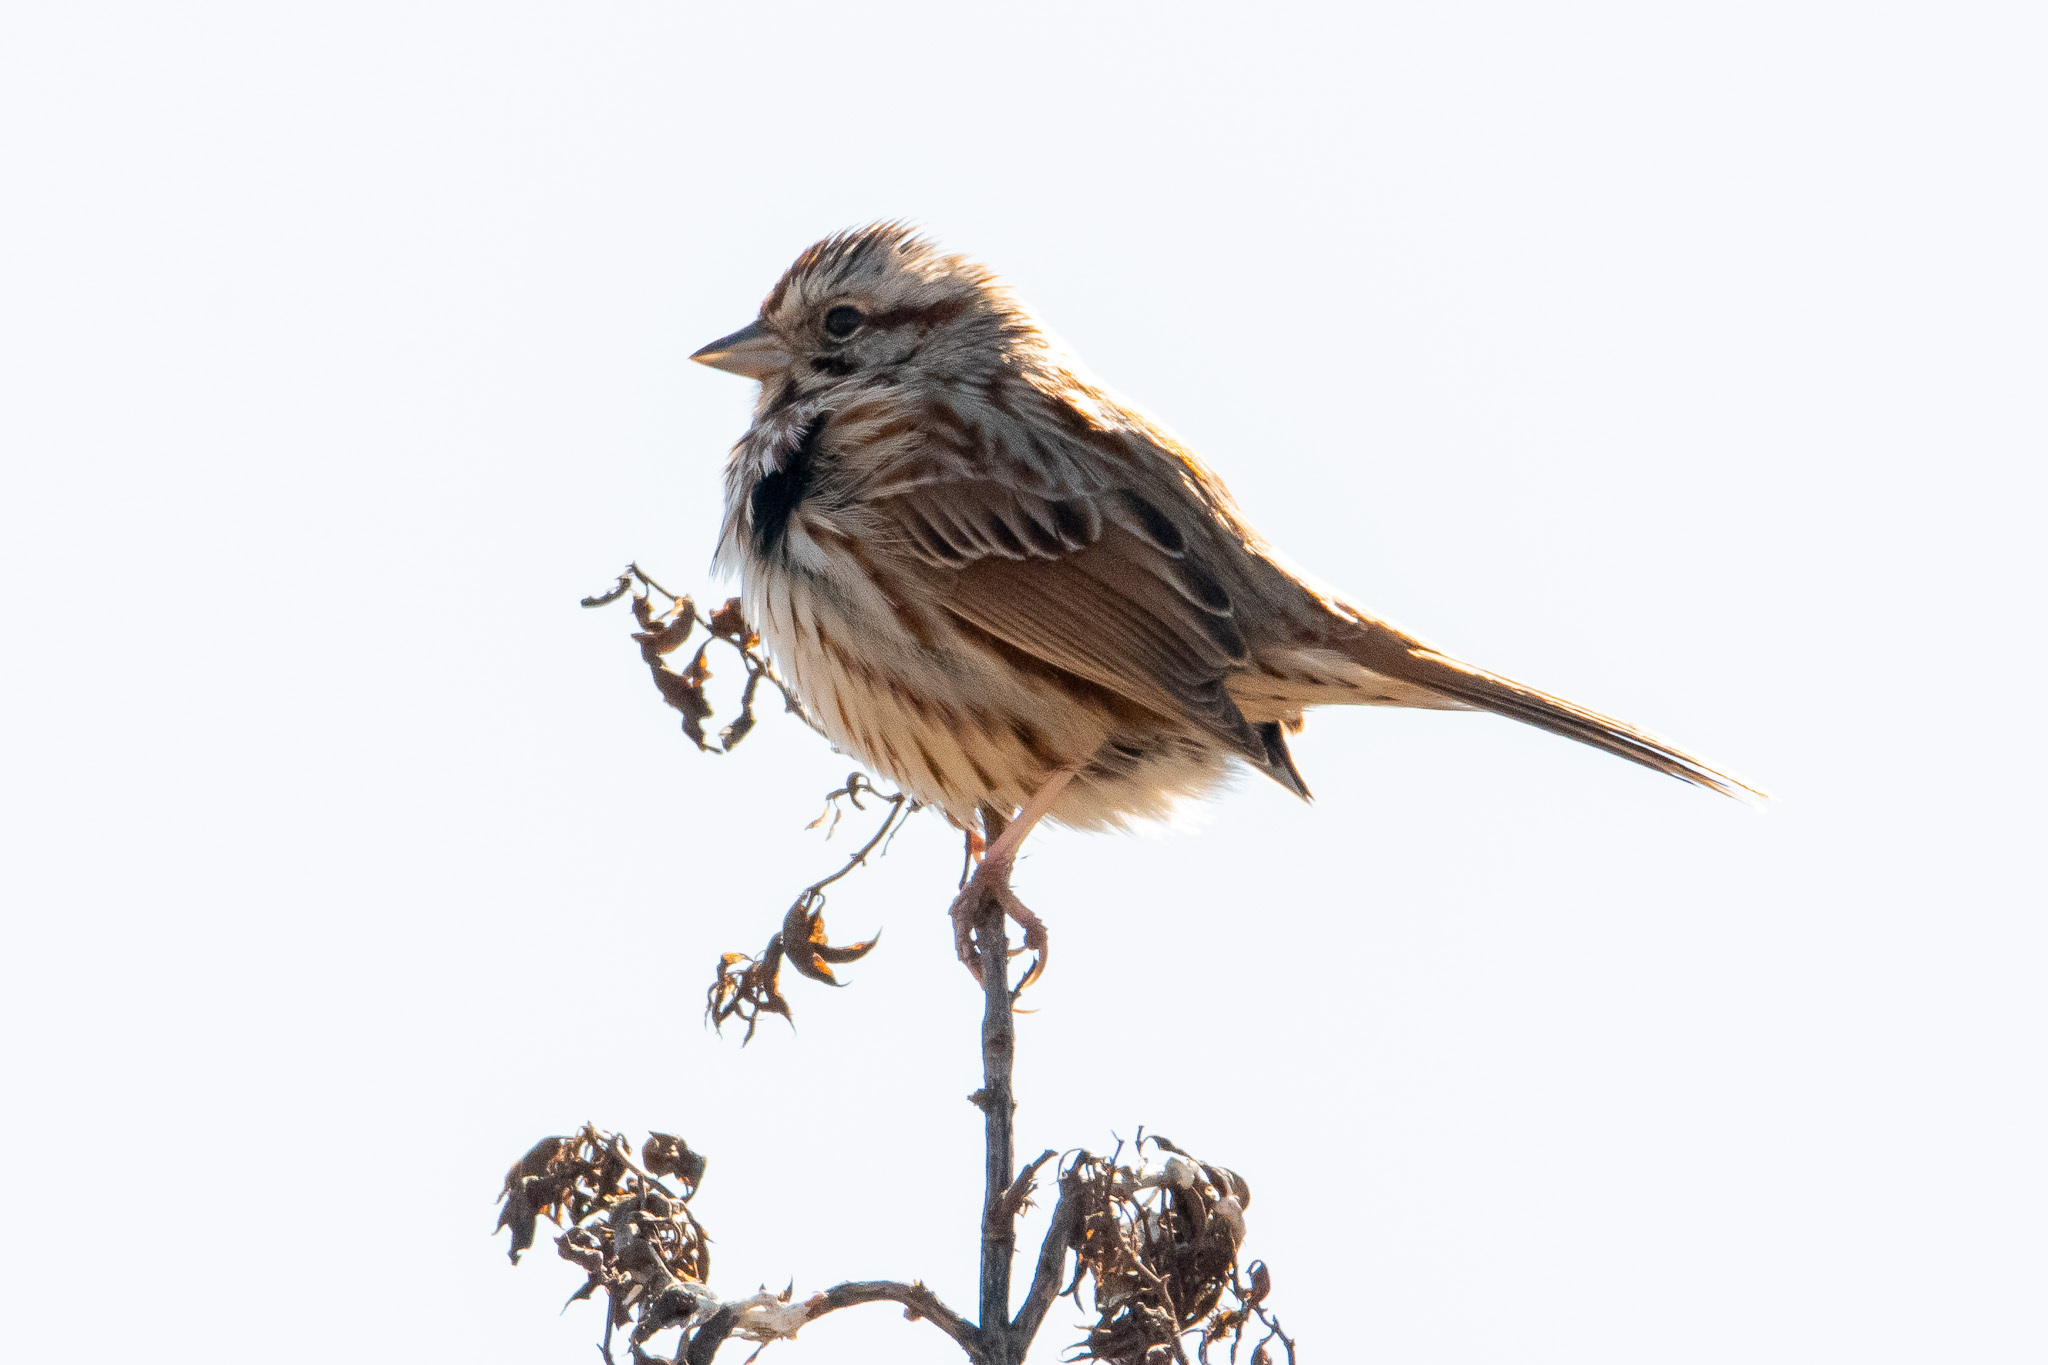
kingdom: Animalia
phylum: Chordata
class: Aves
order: Passeriformes
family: Passerellidae
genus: Melospiza
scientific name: Melospiza melodia
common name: Song sparrow
